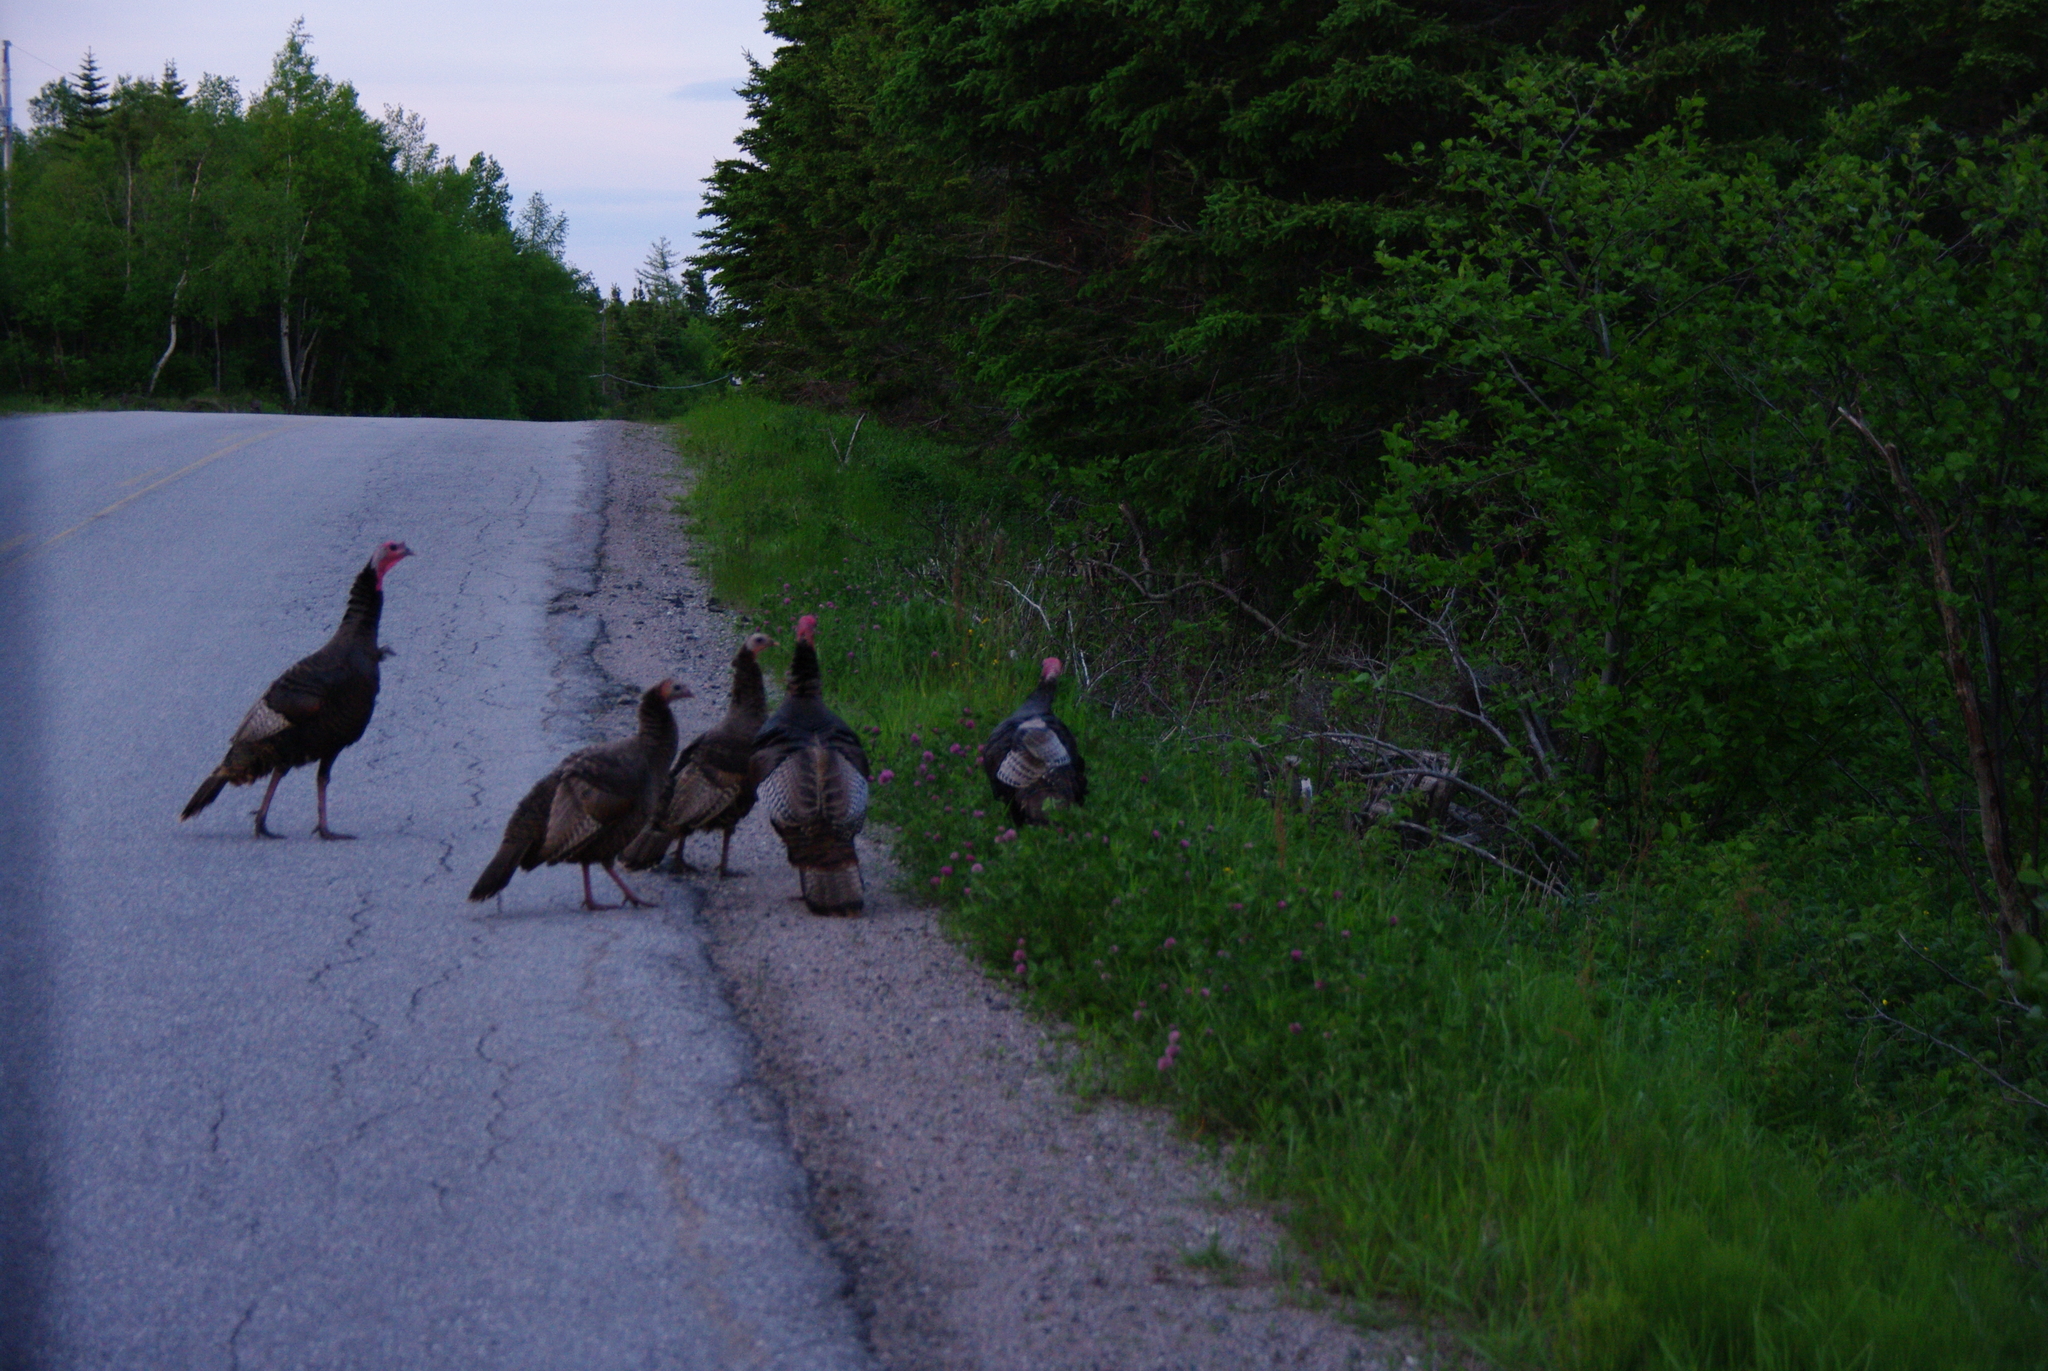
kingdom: Animalia
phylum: Chordata
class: Aves
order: Galliformes
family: Phasianidae
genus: Meleagris
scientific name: Meleagris gallopavo
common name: Wild turkey
